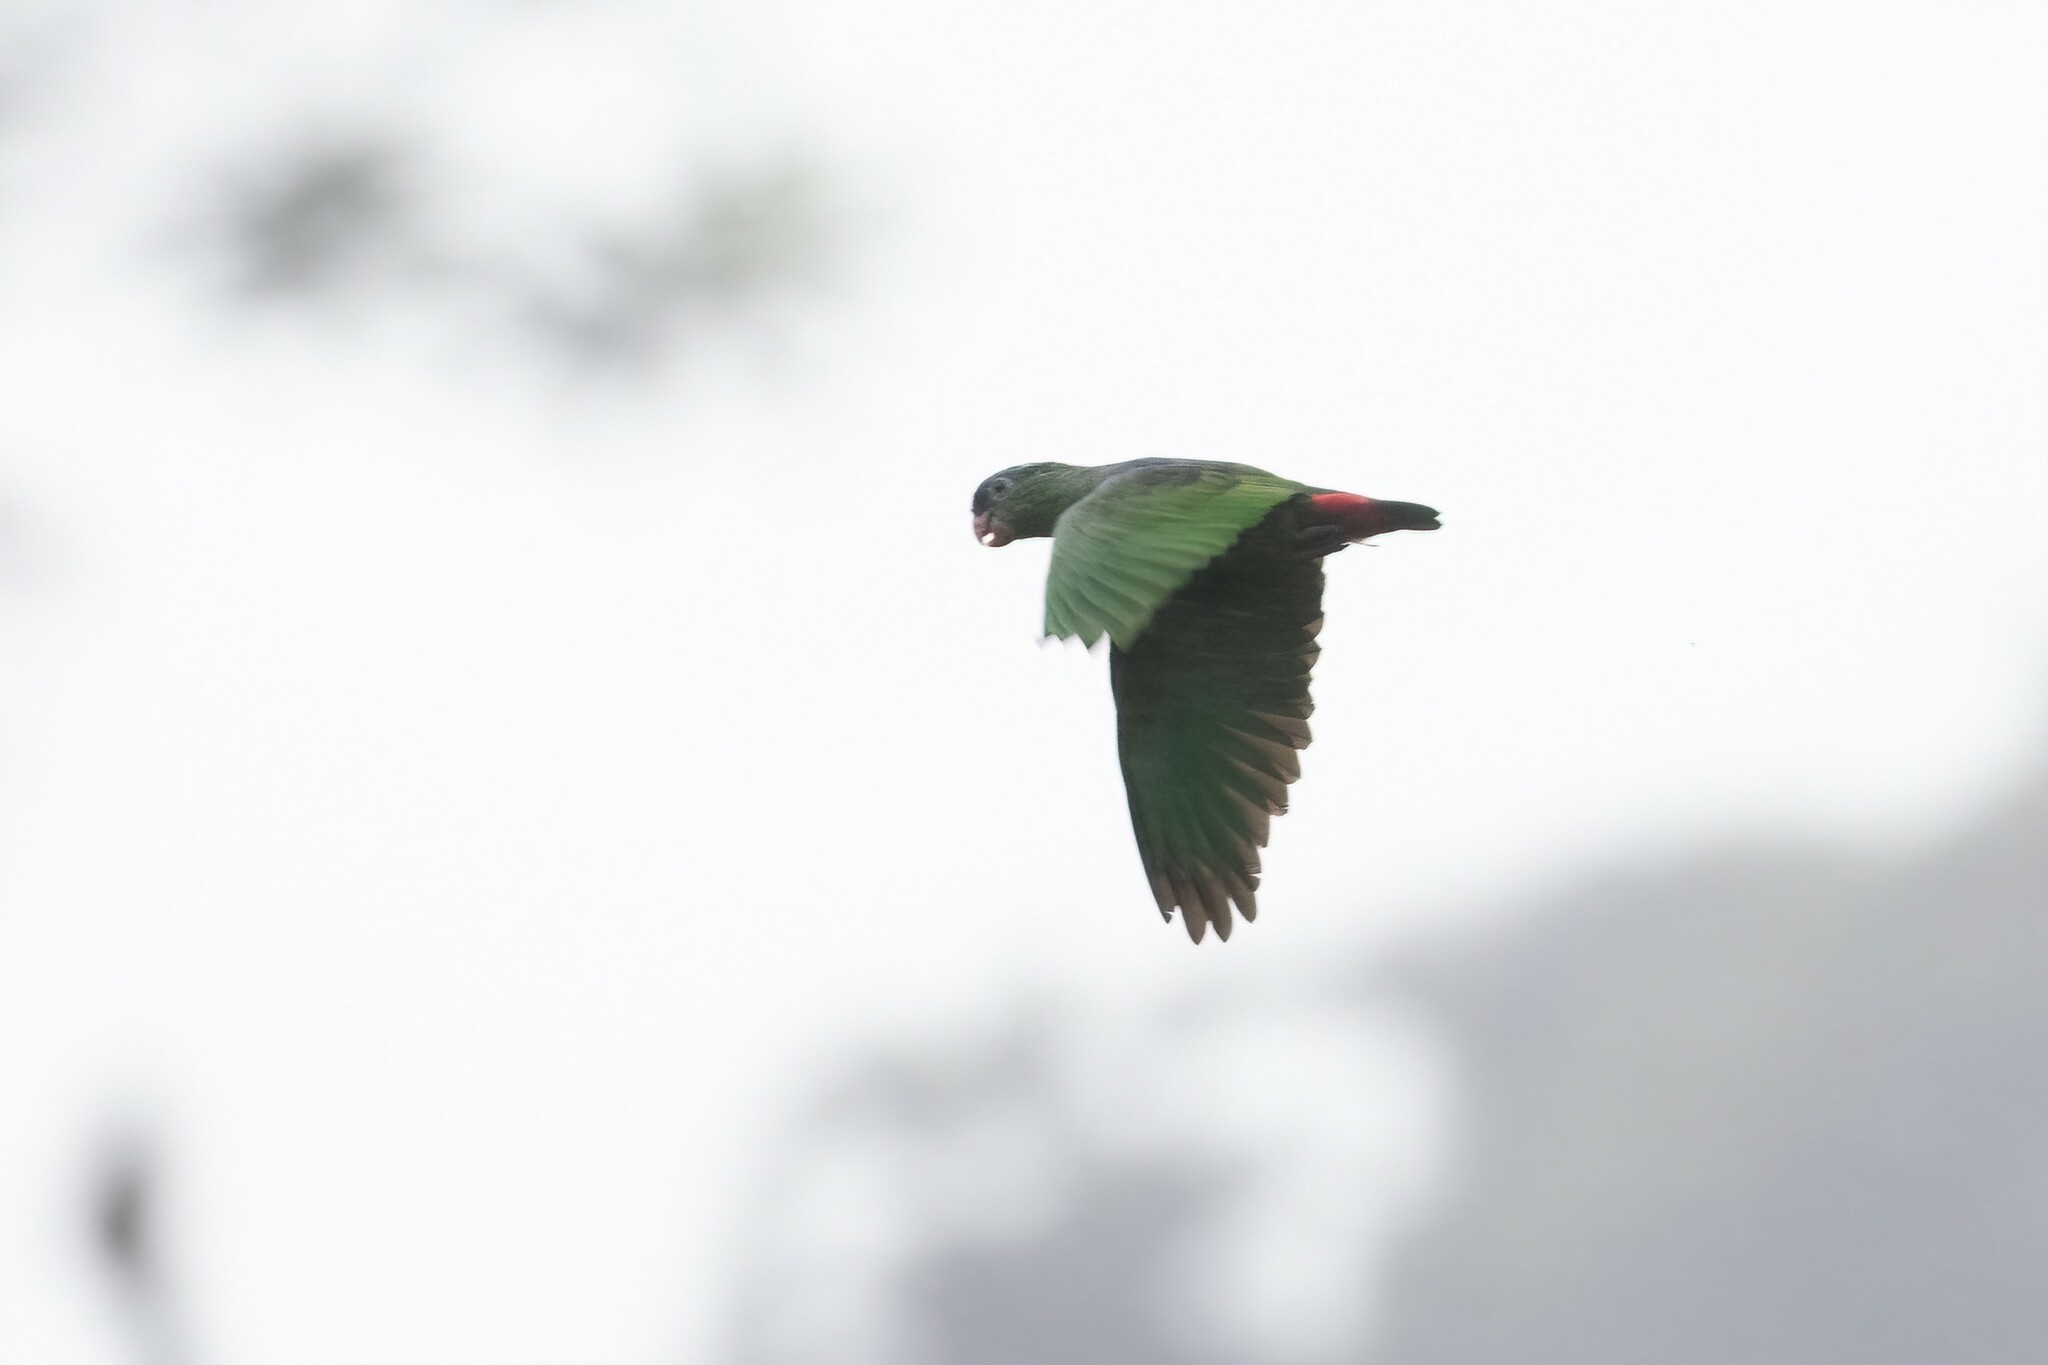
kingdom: Animalia
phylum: Chordata
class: Aves
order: Psittaciformes
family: Psittacidae
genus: Pionus
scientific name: Pionus sordidus
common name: Red-billed parrot
